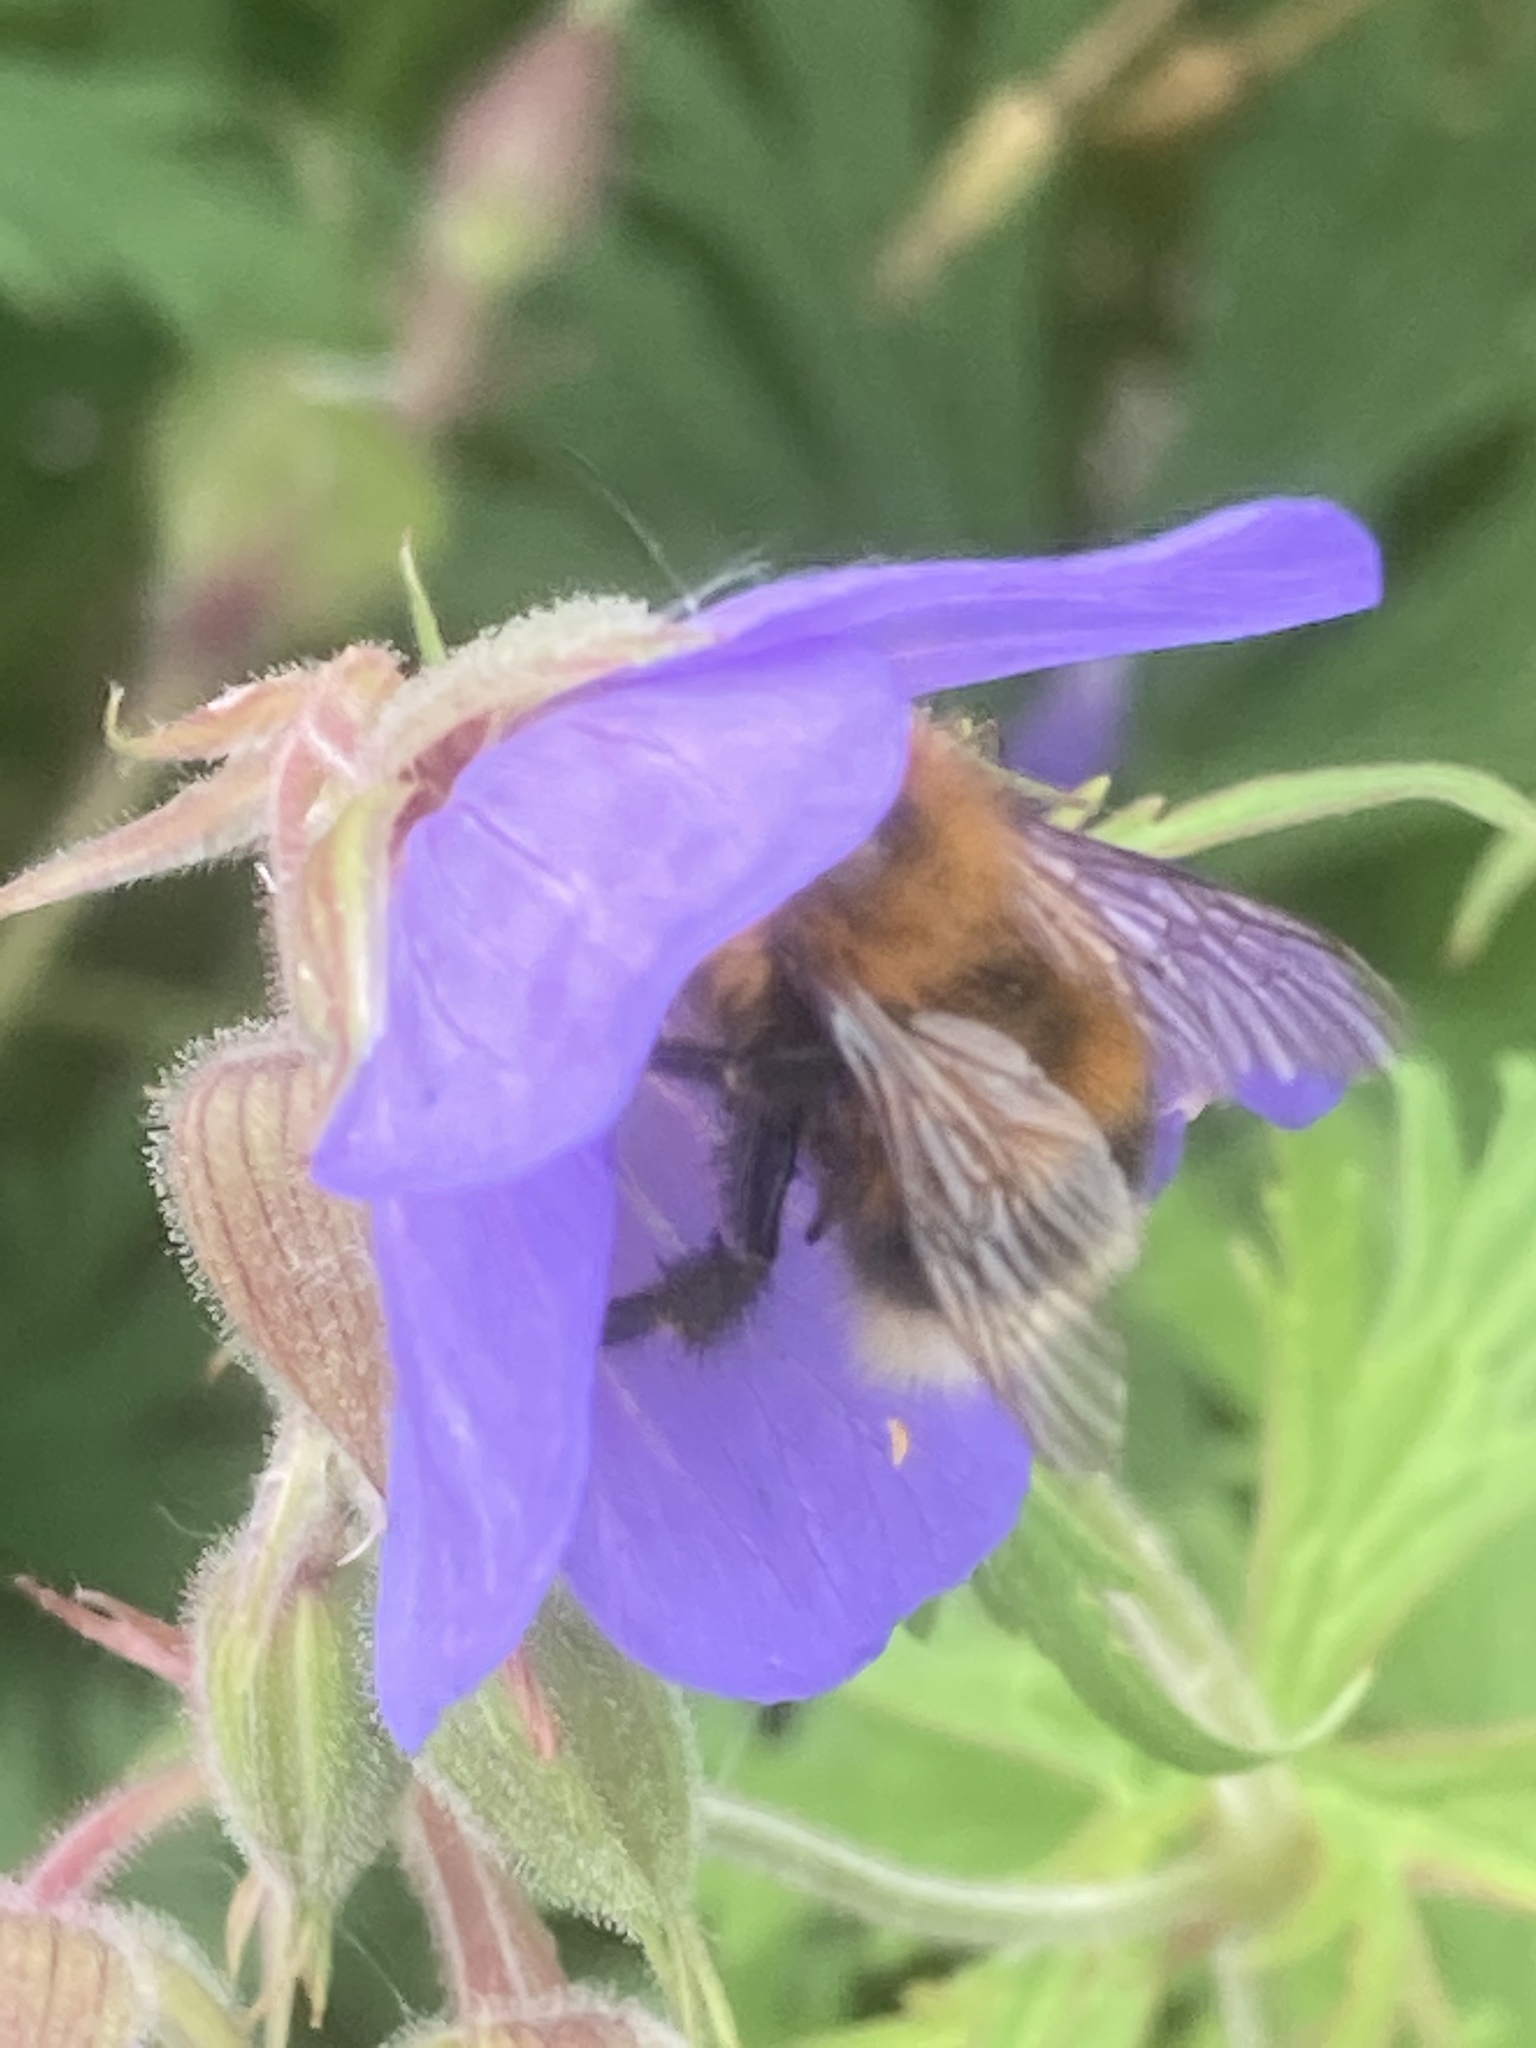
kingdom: Animalia
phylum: Arthropoda
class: Insecta
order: Hymenoptera
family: Apidae
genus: Bombus
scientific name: Bombus hypnorum
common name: New garden bumblebee
